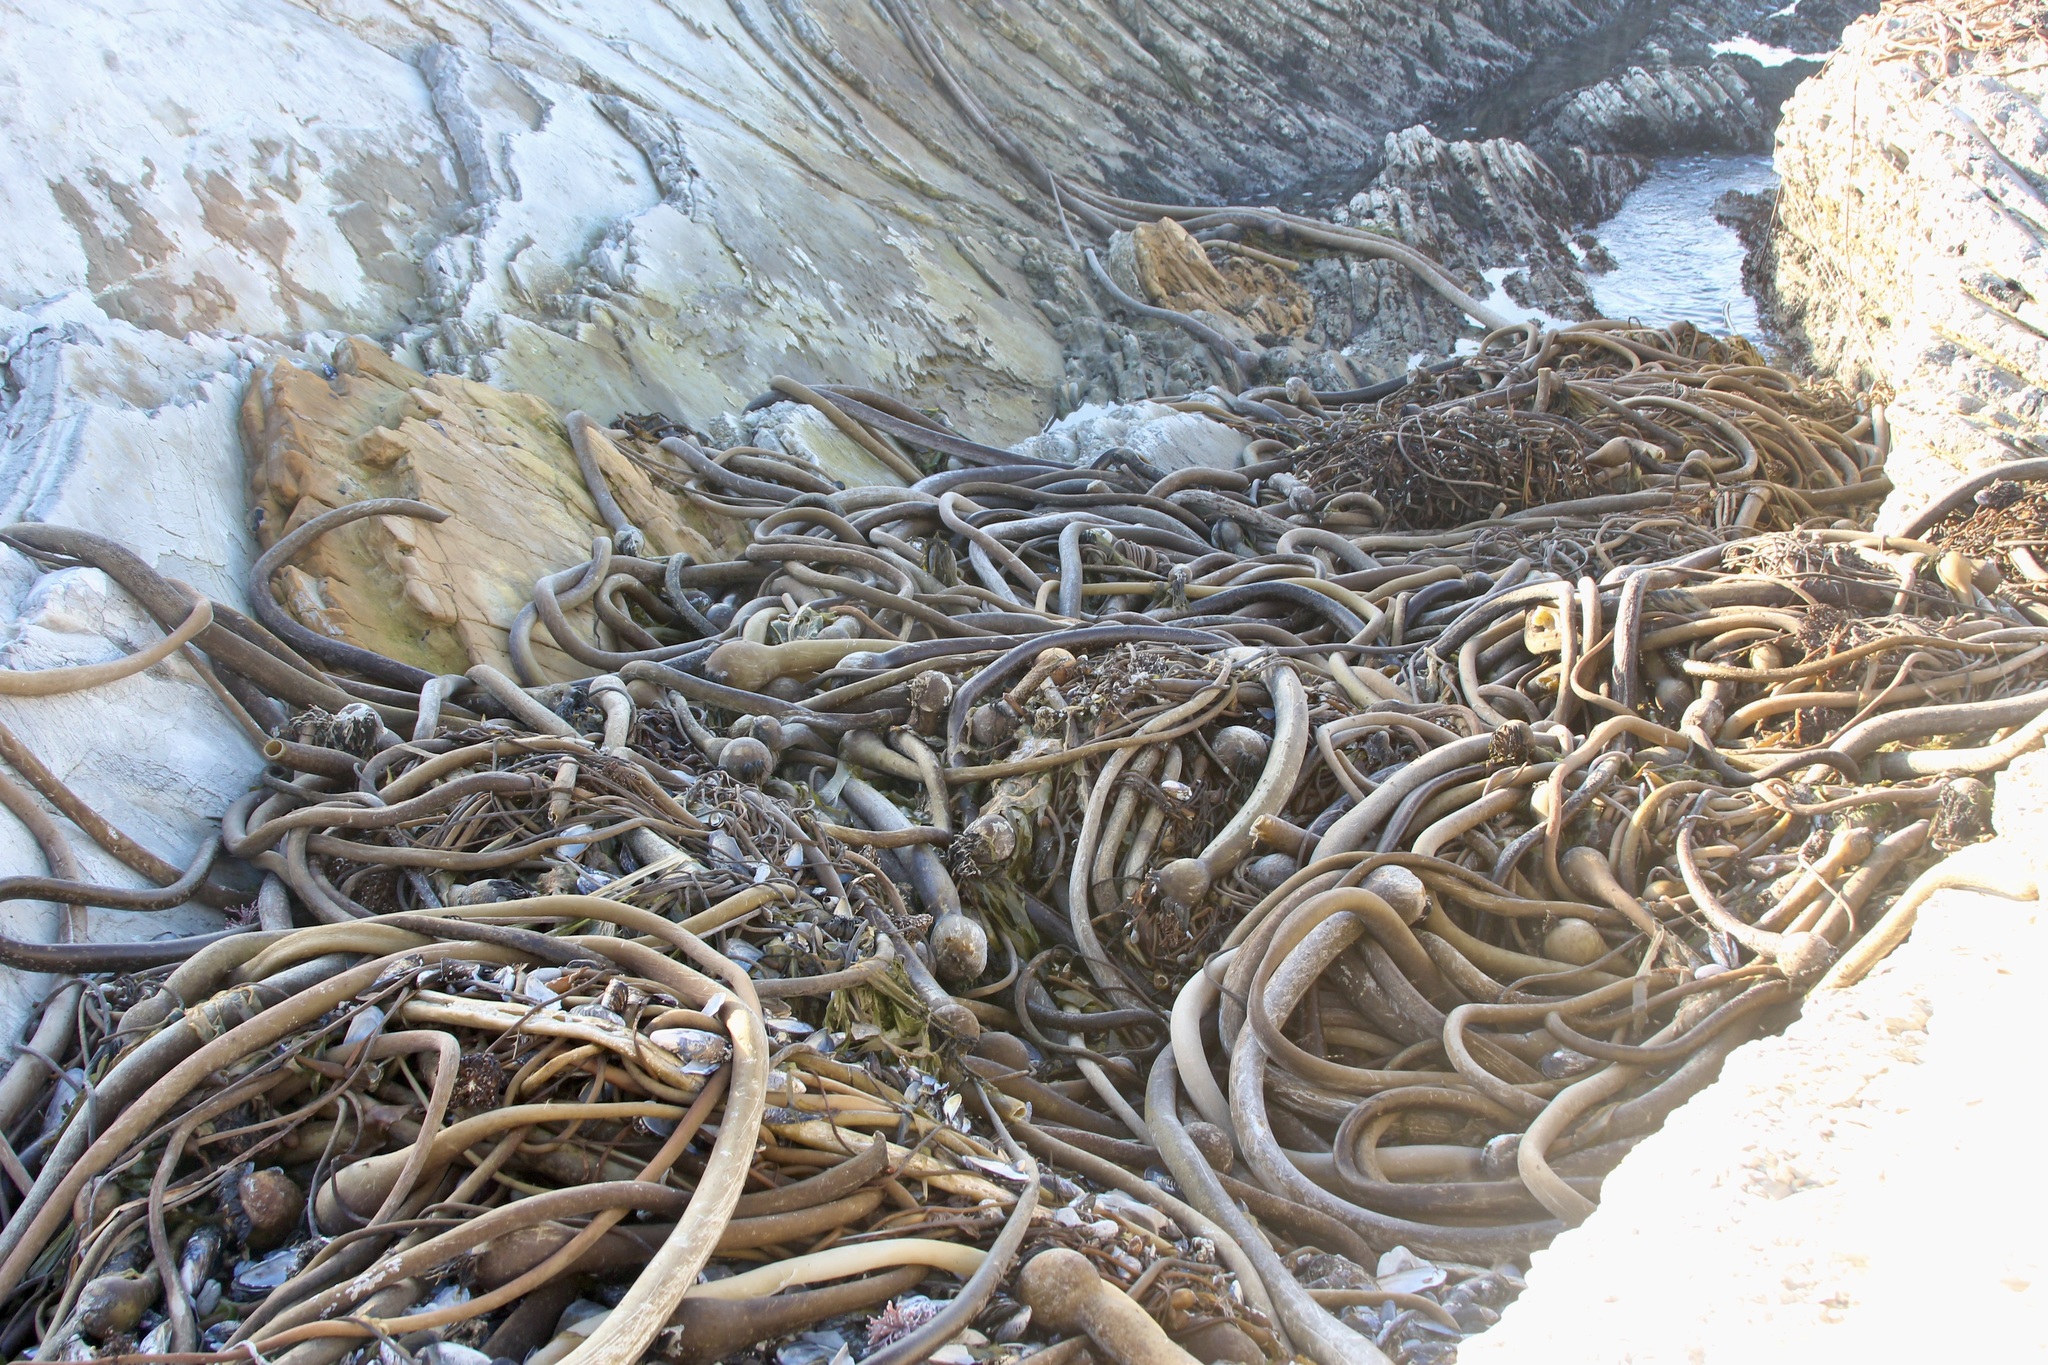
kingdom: Chromista
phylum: Ochrophyta
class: Phaeophyceae
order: Laminariales
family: Laminariaceae
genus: Nereocystis
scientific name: Nereocystis luetkeana
